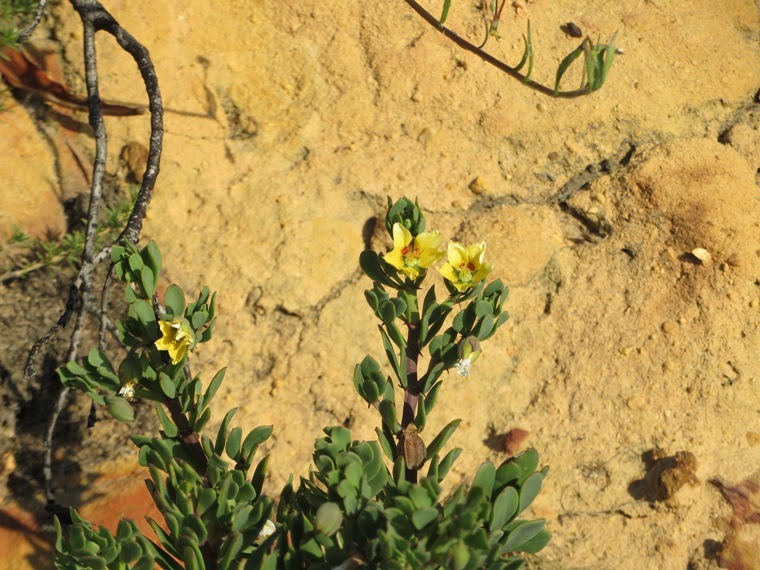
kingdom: Plantae
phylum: Tracheophyta
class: Magnoliopsida
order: Zygophyllales
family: Zygophyllaceae
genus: Roepera
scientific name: Roepera flexuosa
